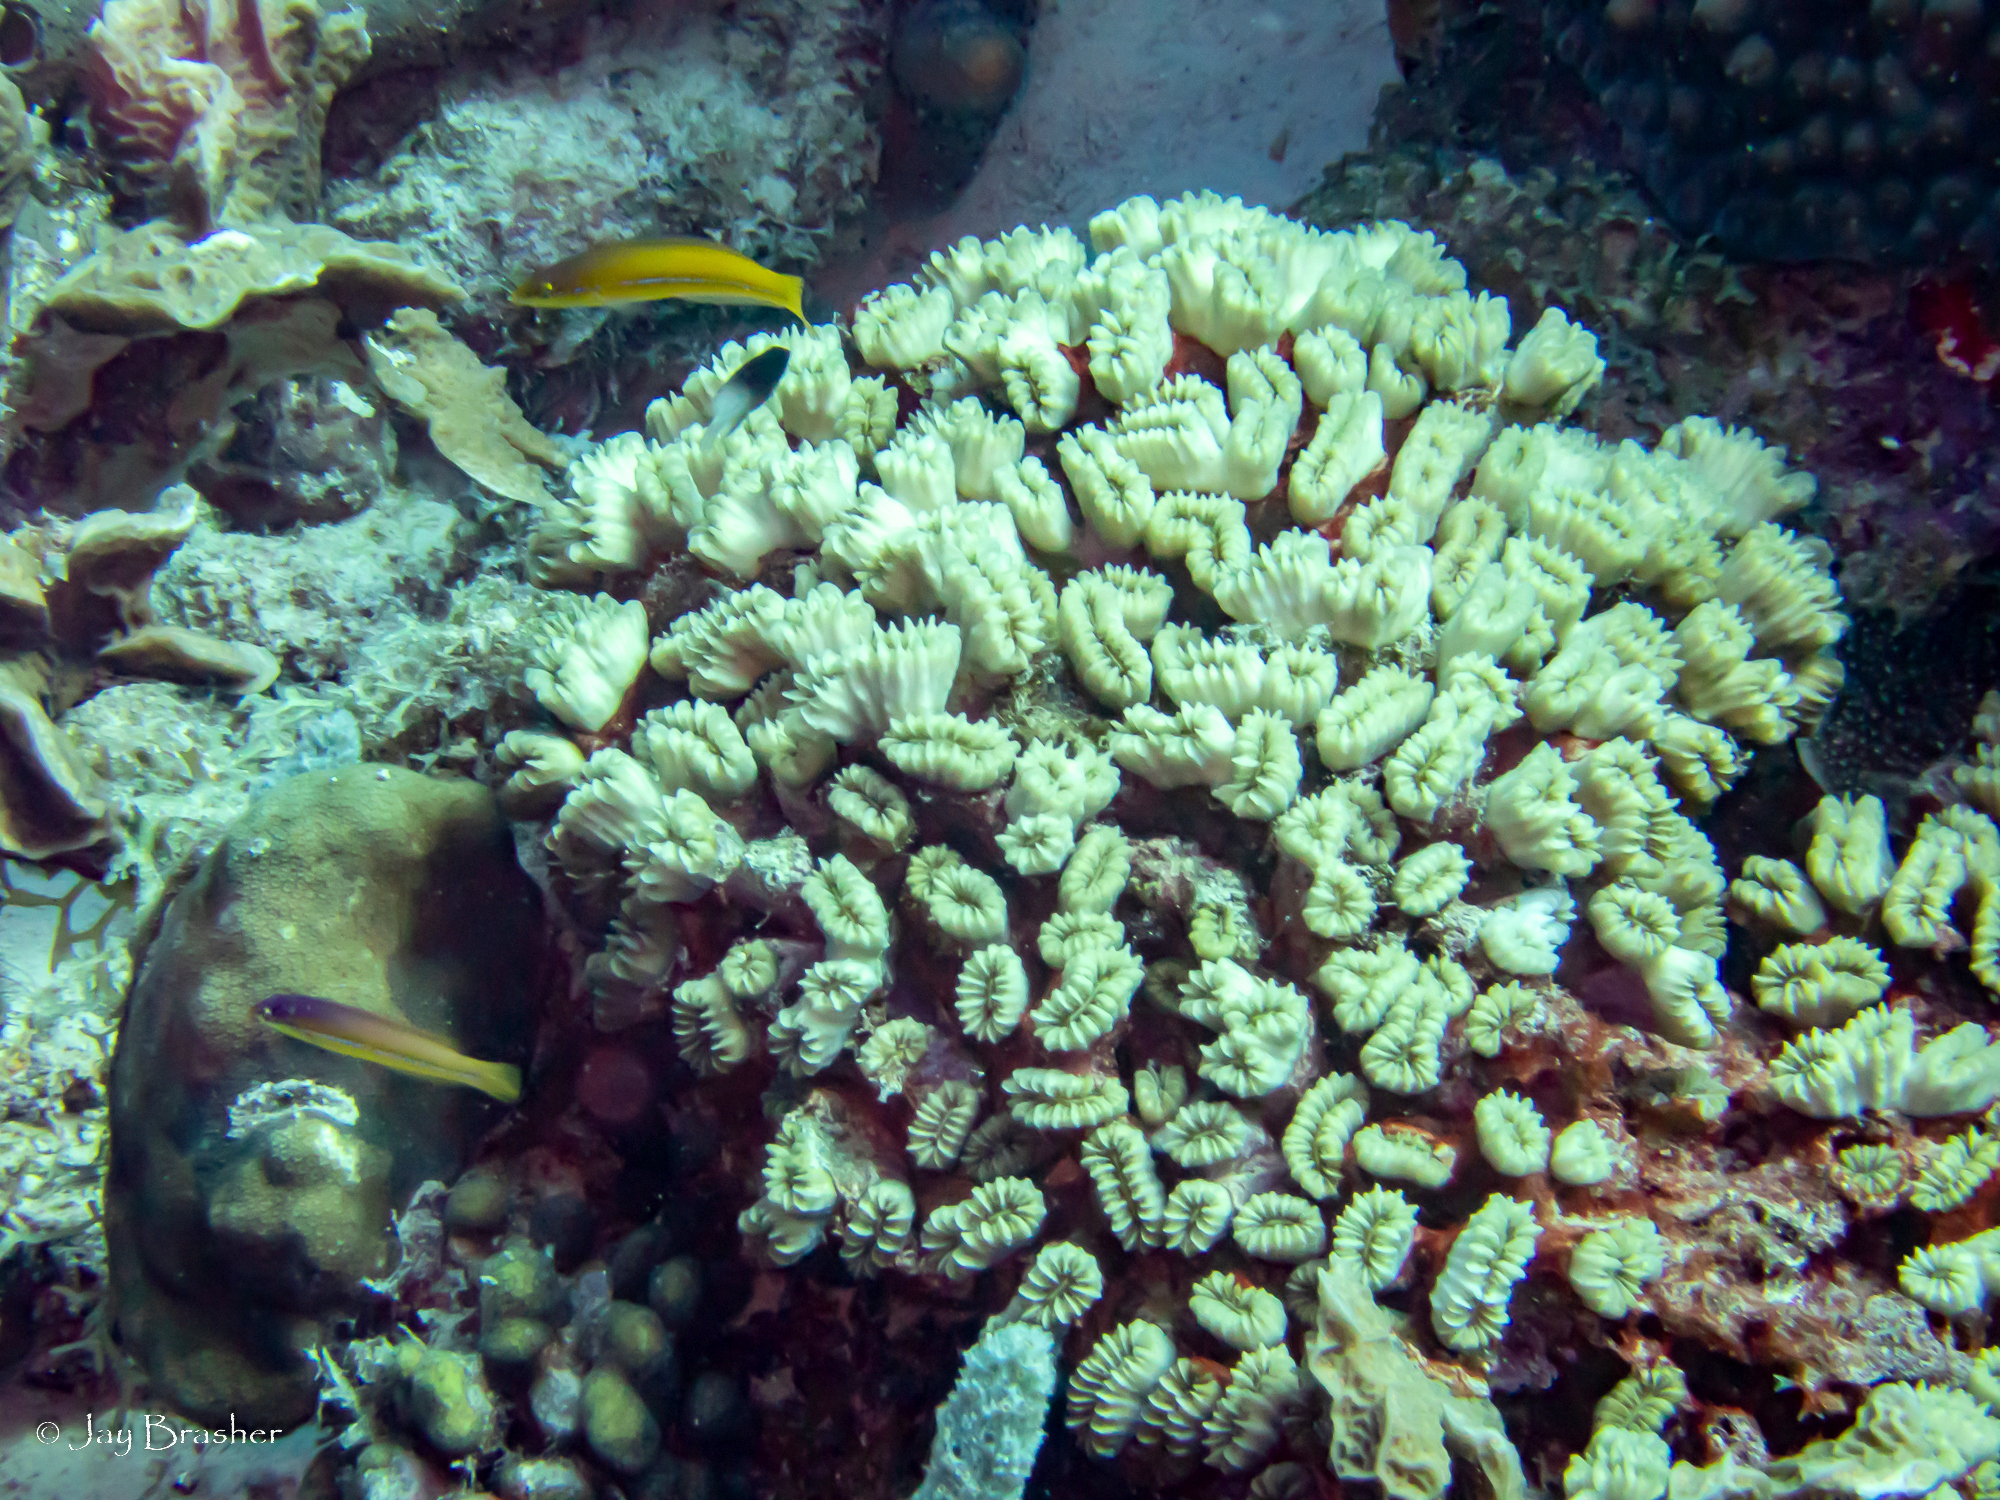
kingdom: Animalia
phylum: Cnidaria
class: Anthozoa
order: Scleractinia
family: Meandrinidae
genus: Eusmilia
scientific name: Eusmilia fastigiata
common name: Smooth flower coral
